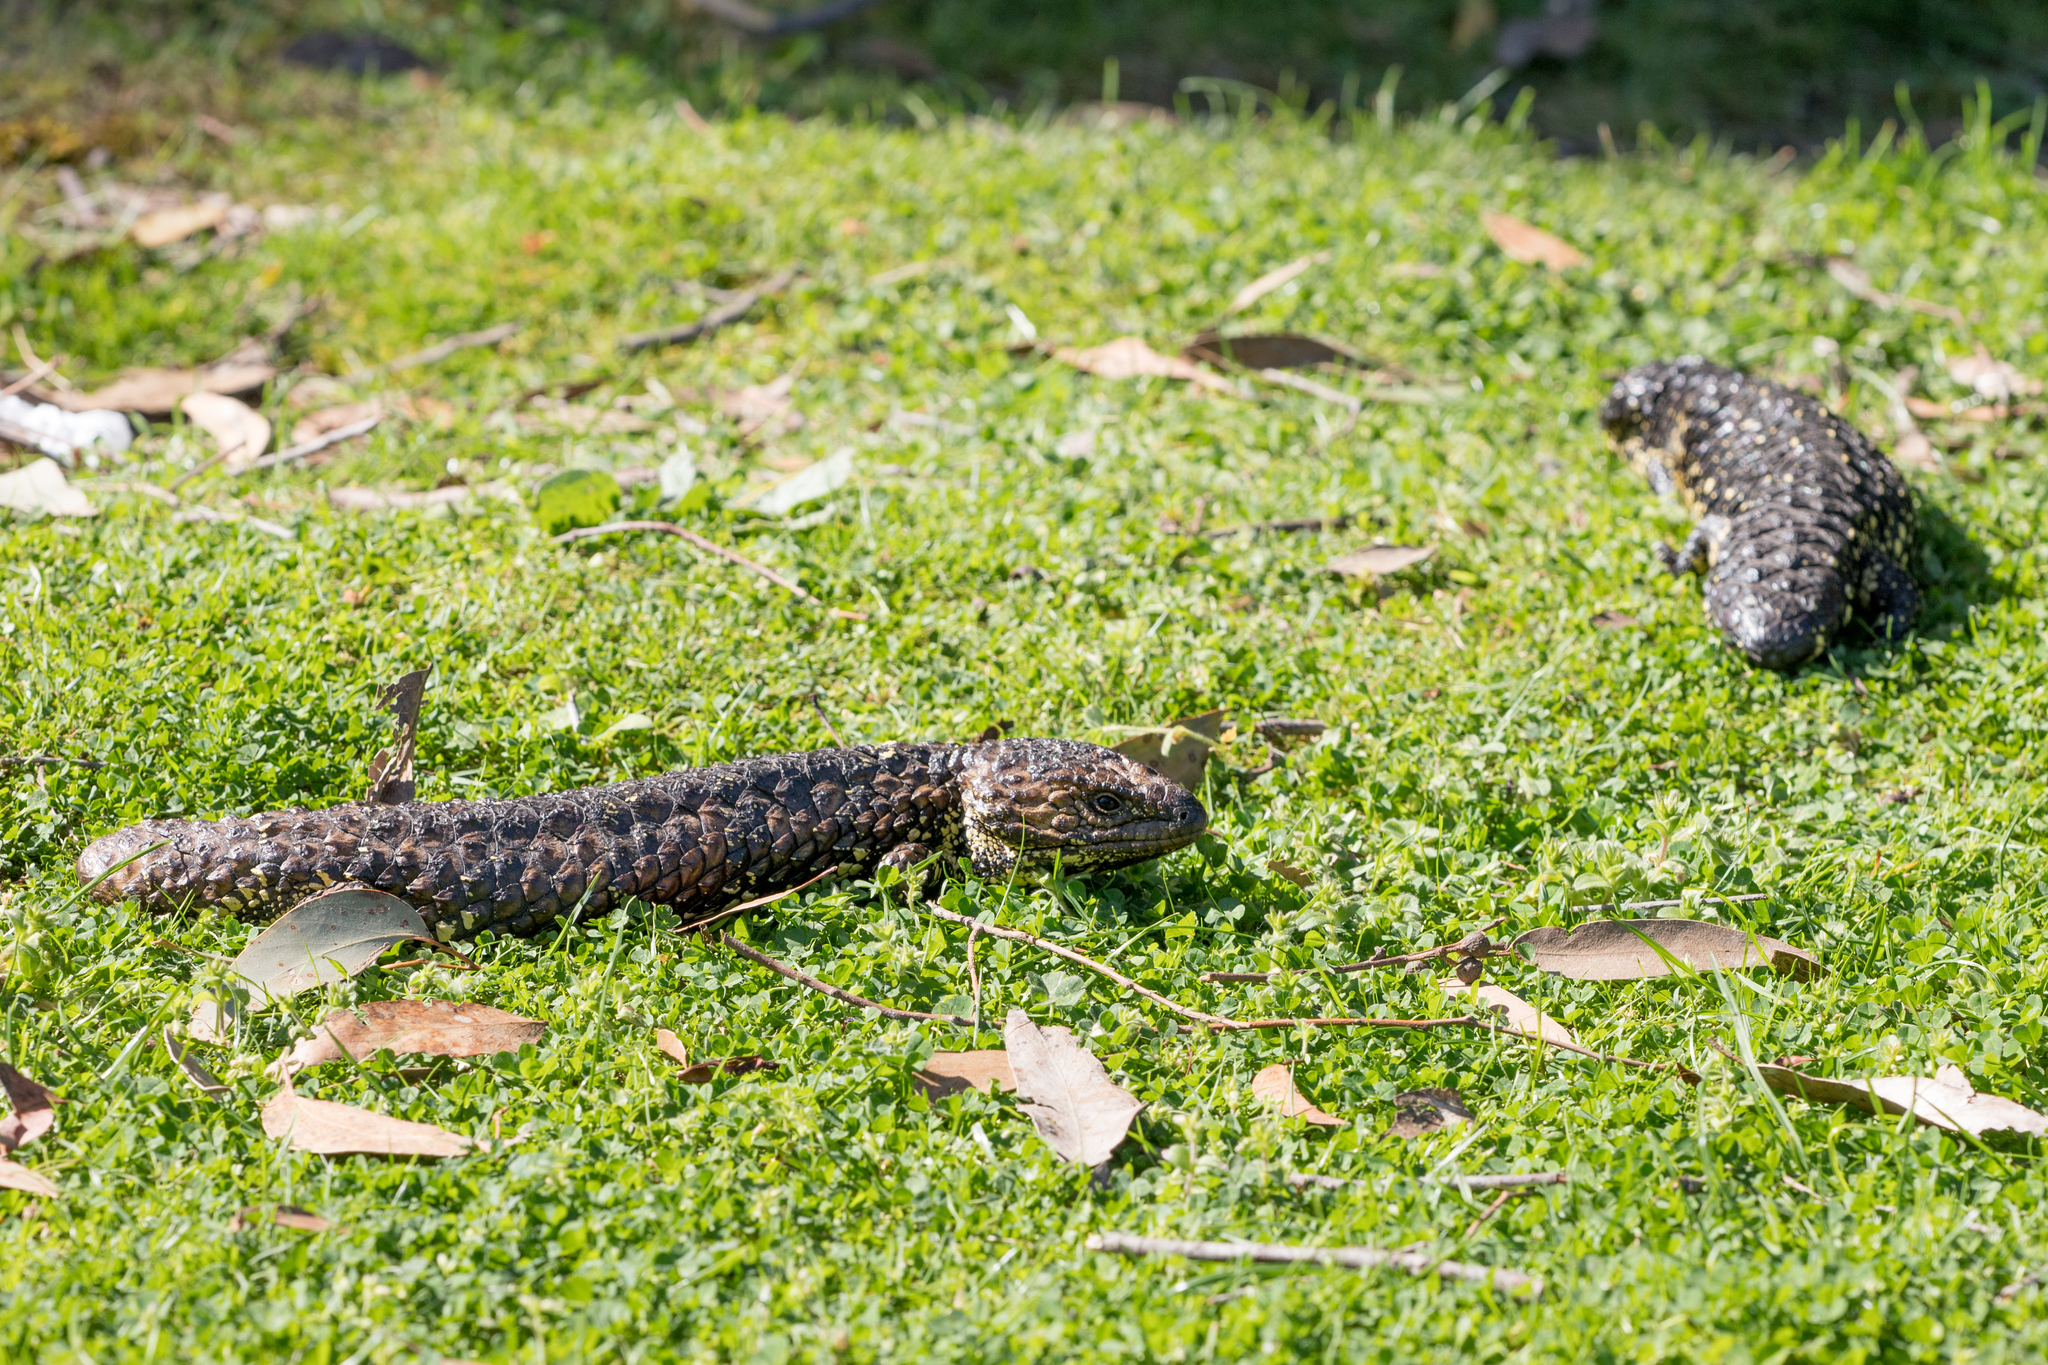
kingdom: Animalia
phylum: Chordata
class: Squamata
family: Scincidae
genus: Tiliqua
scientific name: Tiliqua rugosa
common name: Pinecone lizard
